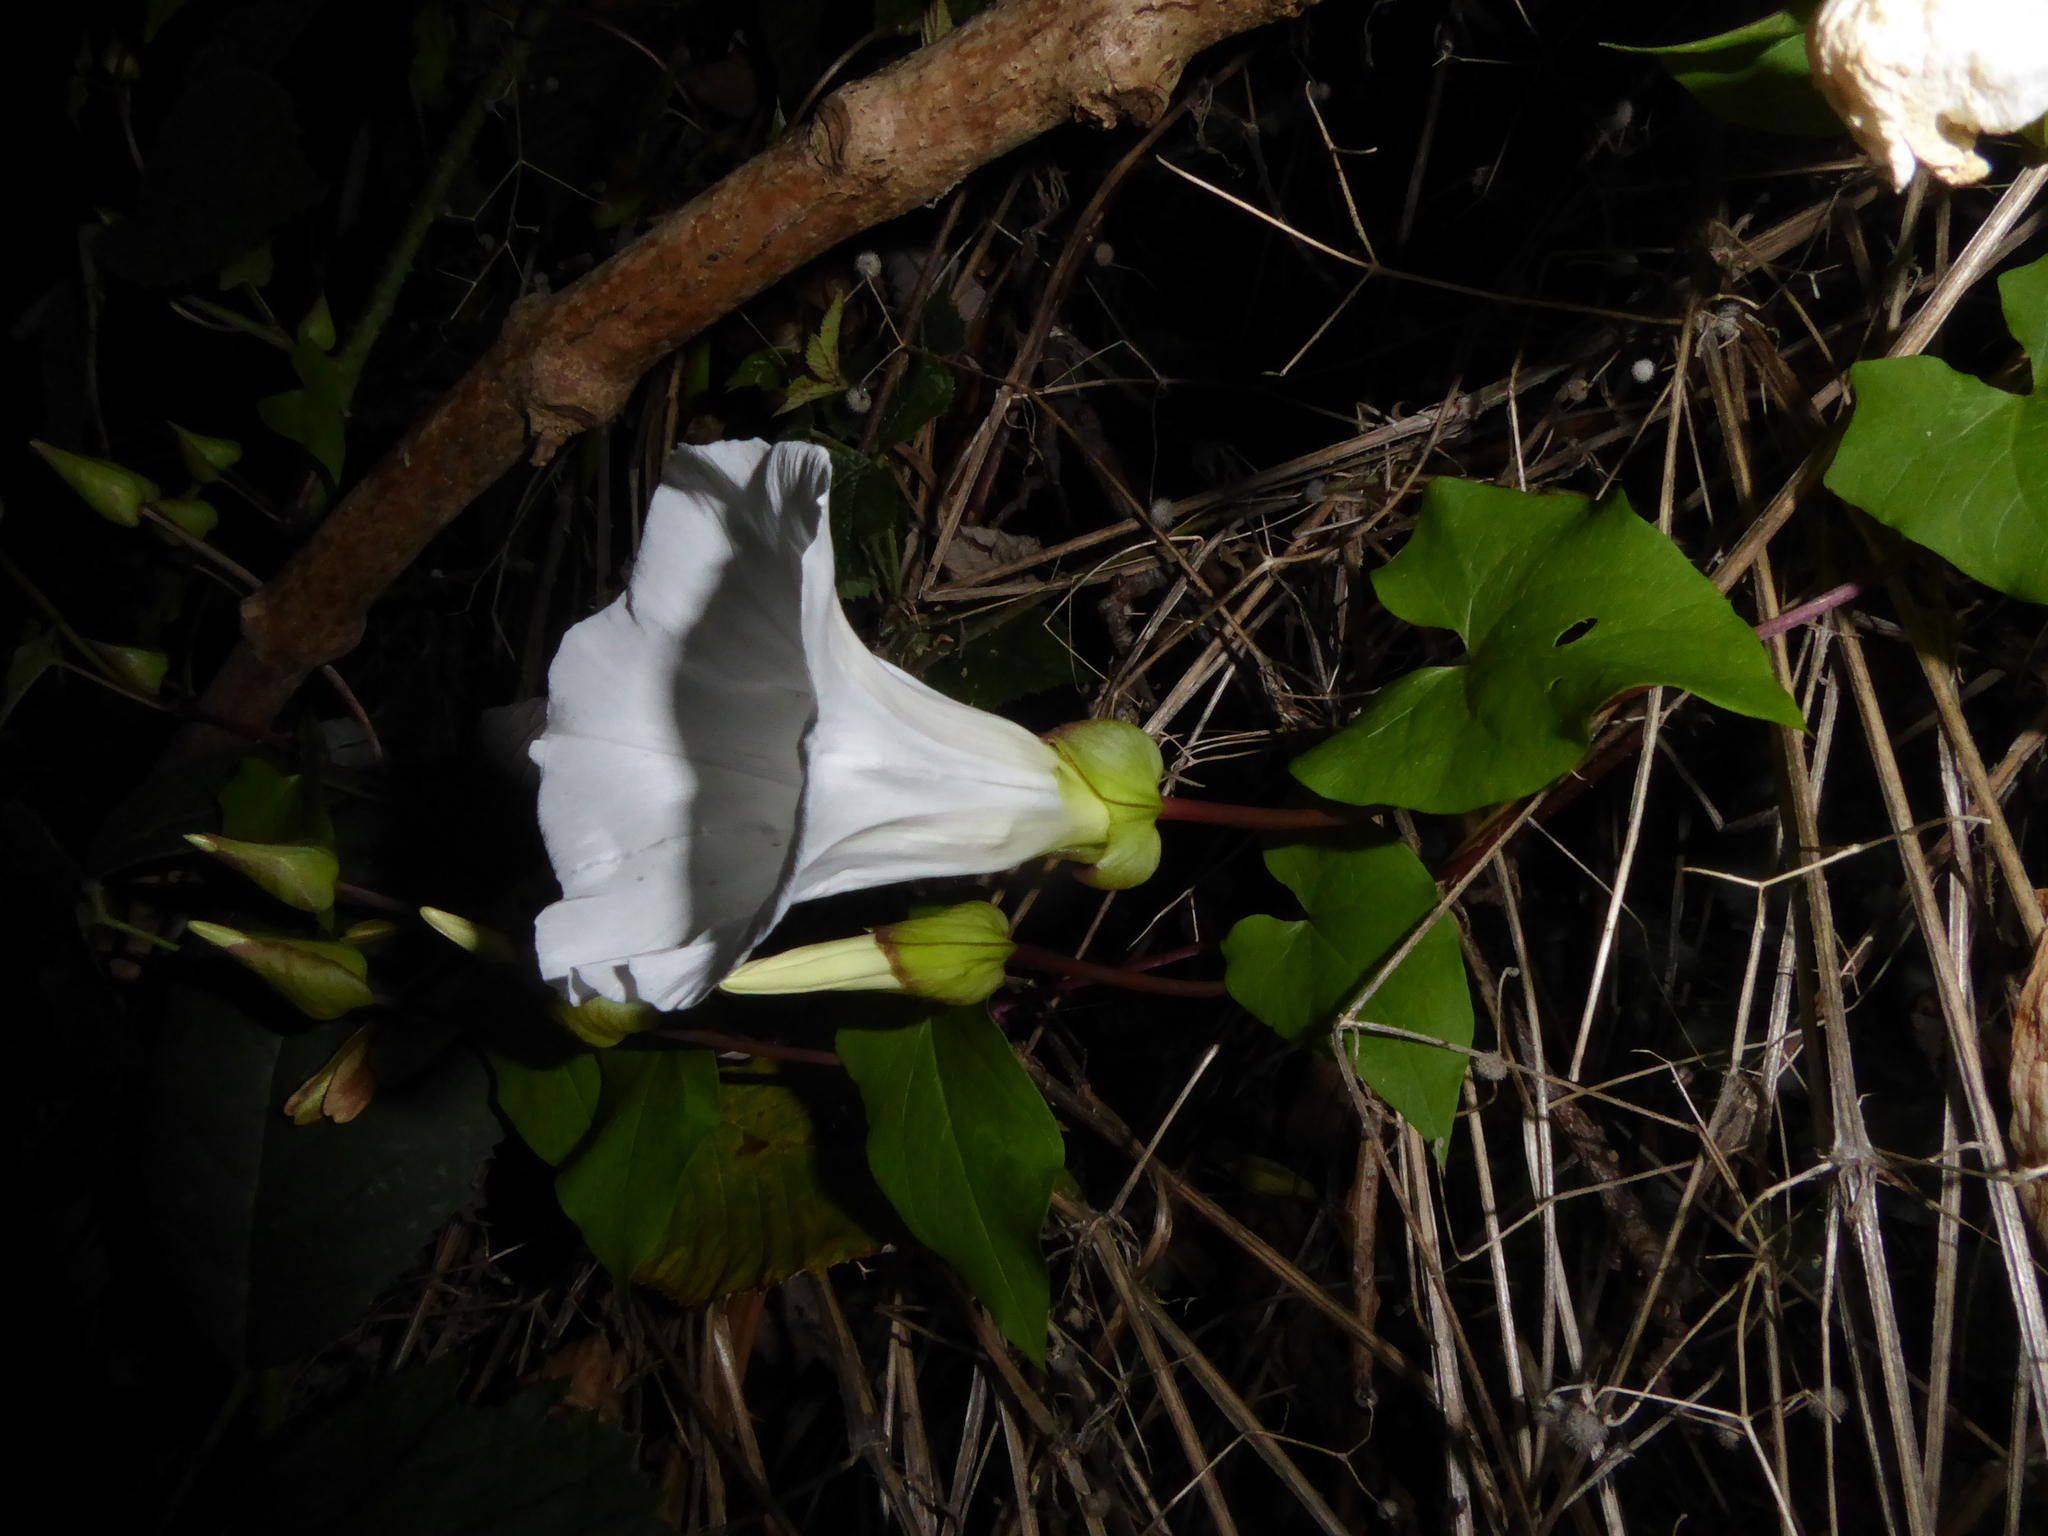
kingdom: Plantae
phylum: Tracheophyta
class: Magnoliopsida
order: Solanales
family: Convolvulaceae
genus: Calystegia
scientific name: Calystegia silvatica
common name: Large bindweed
